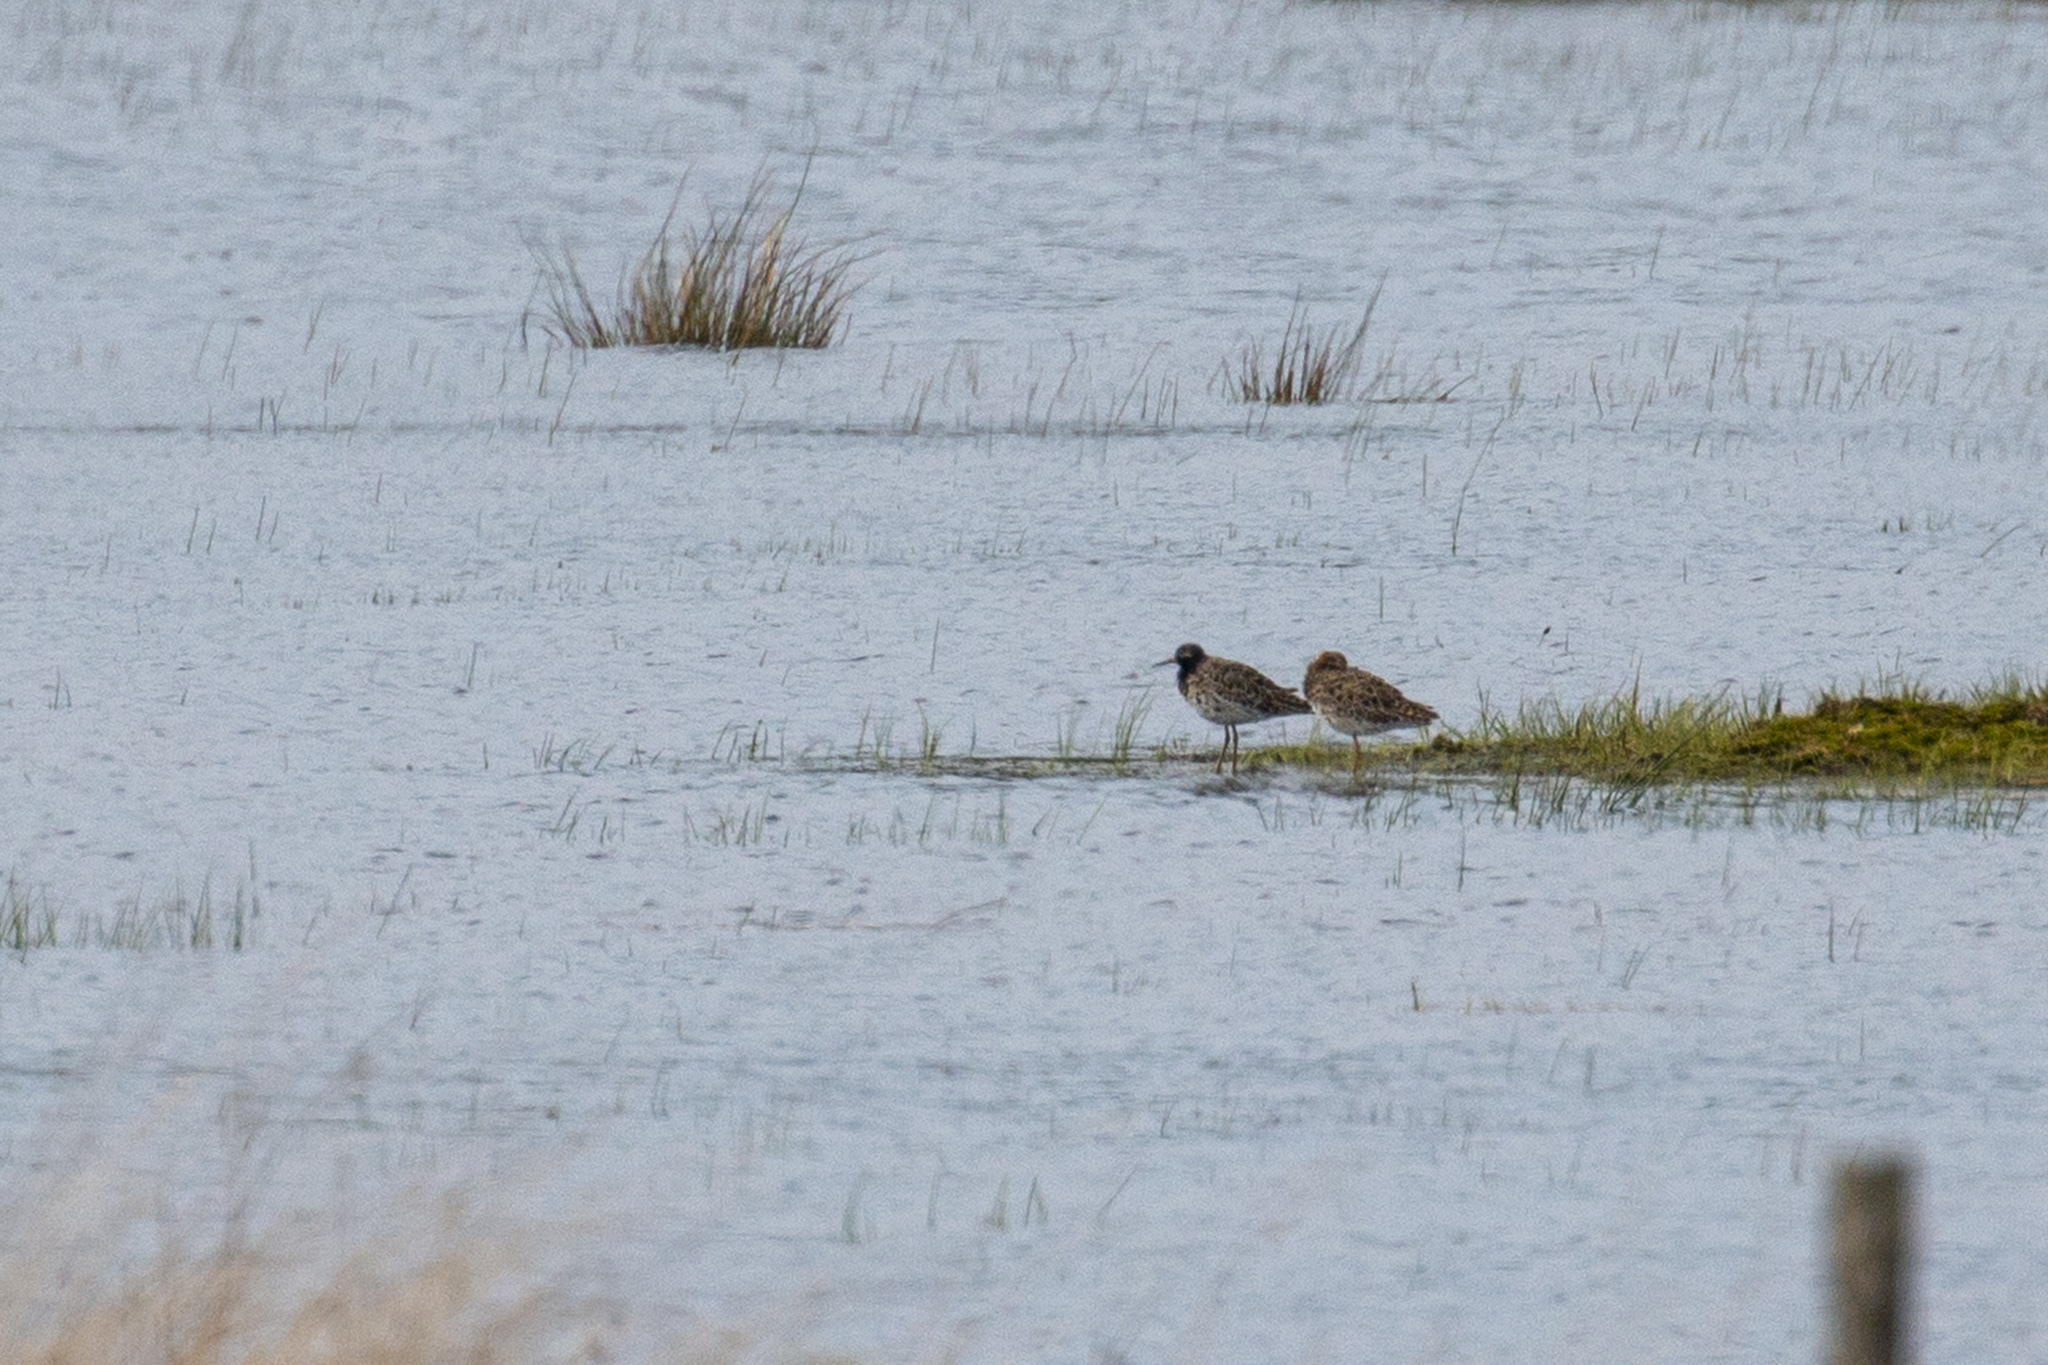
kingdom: Animalia
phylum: Chordata
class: Aves
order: Charadriiformes
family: Scolopacidae
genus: Calidris
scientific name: Calidris pugnax
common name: Ruff
